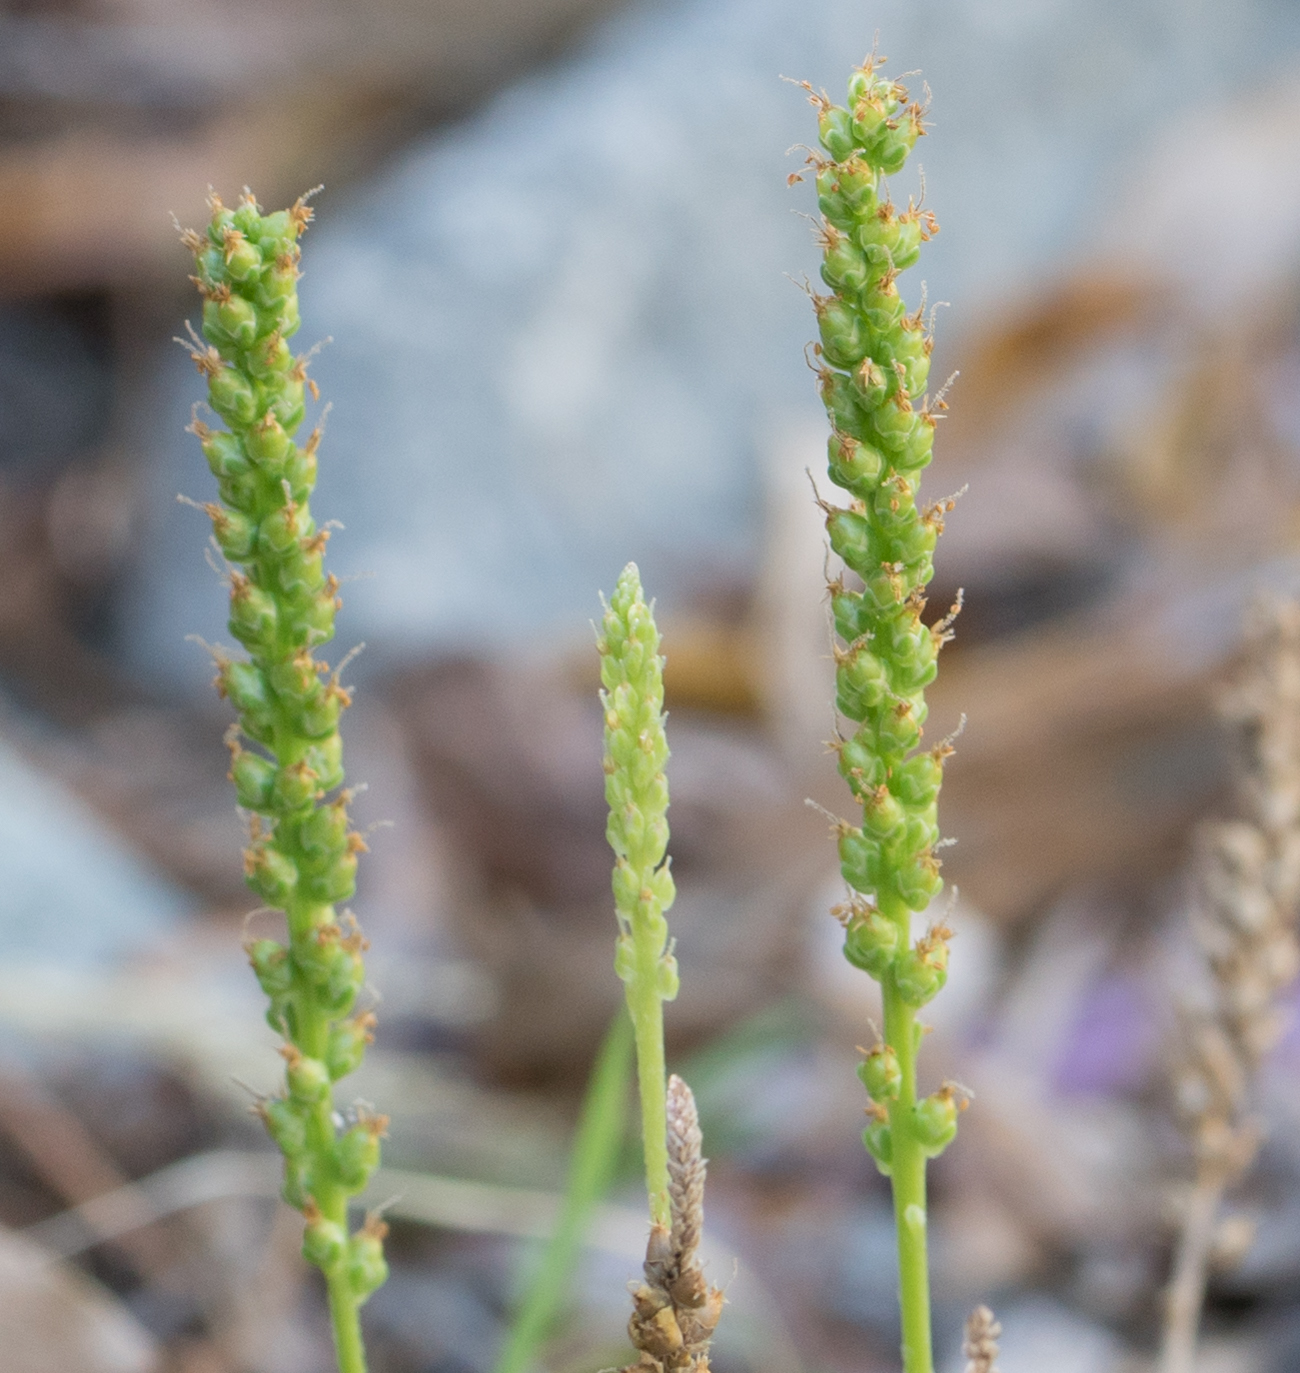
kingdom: Plantae
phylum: Tracheophyta
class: Magnoliopsida
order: Lamiales
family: Plantaginaceae
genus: Plantago
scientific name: Plantago major
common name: Common plantain
